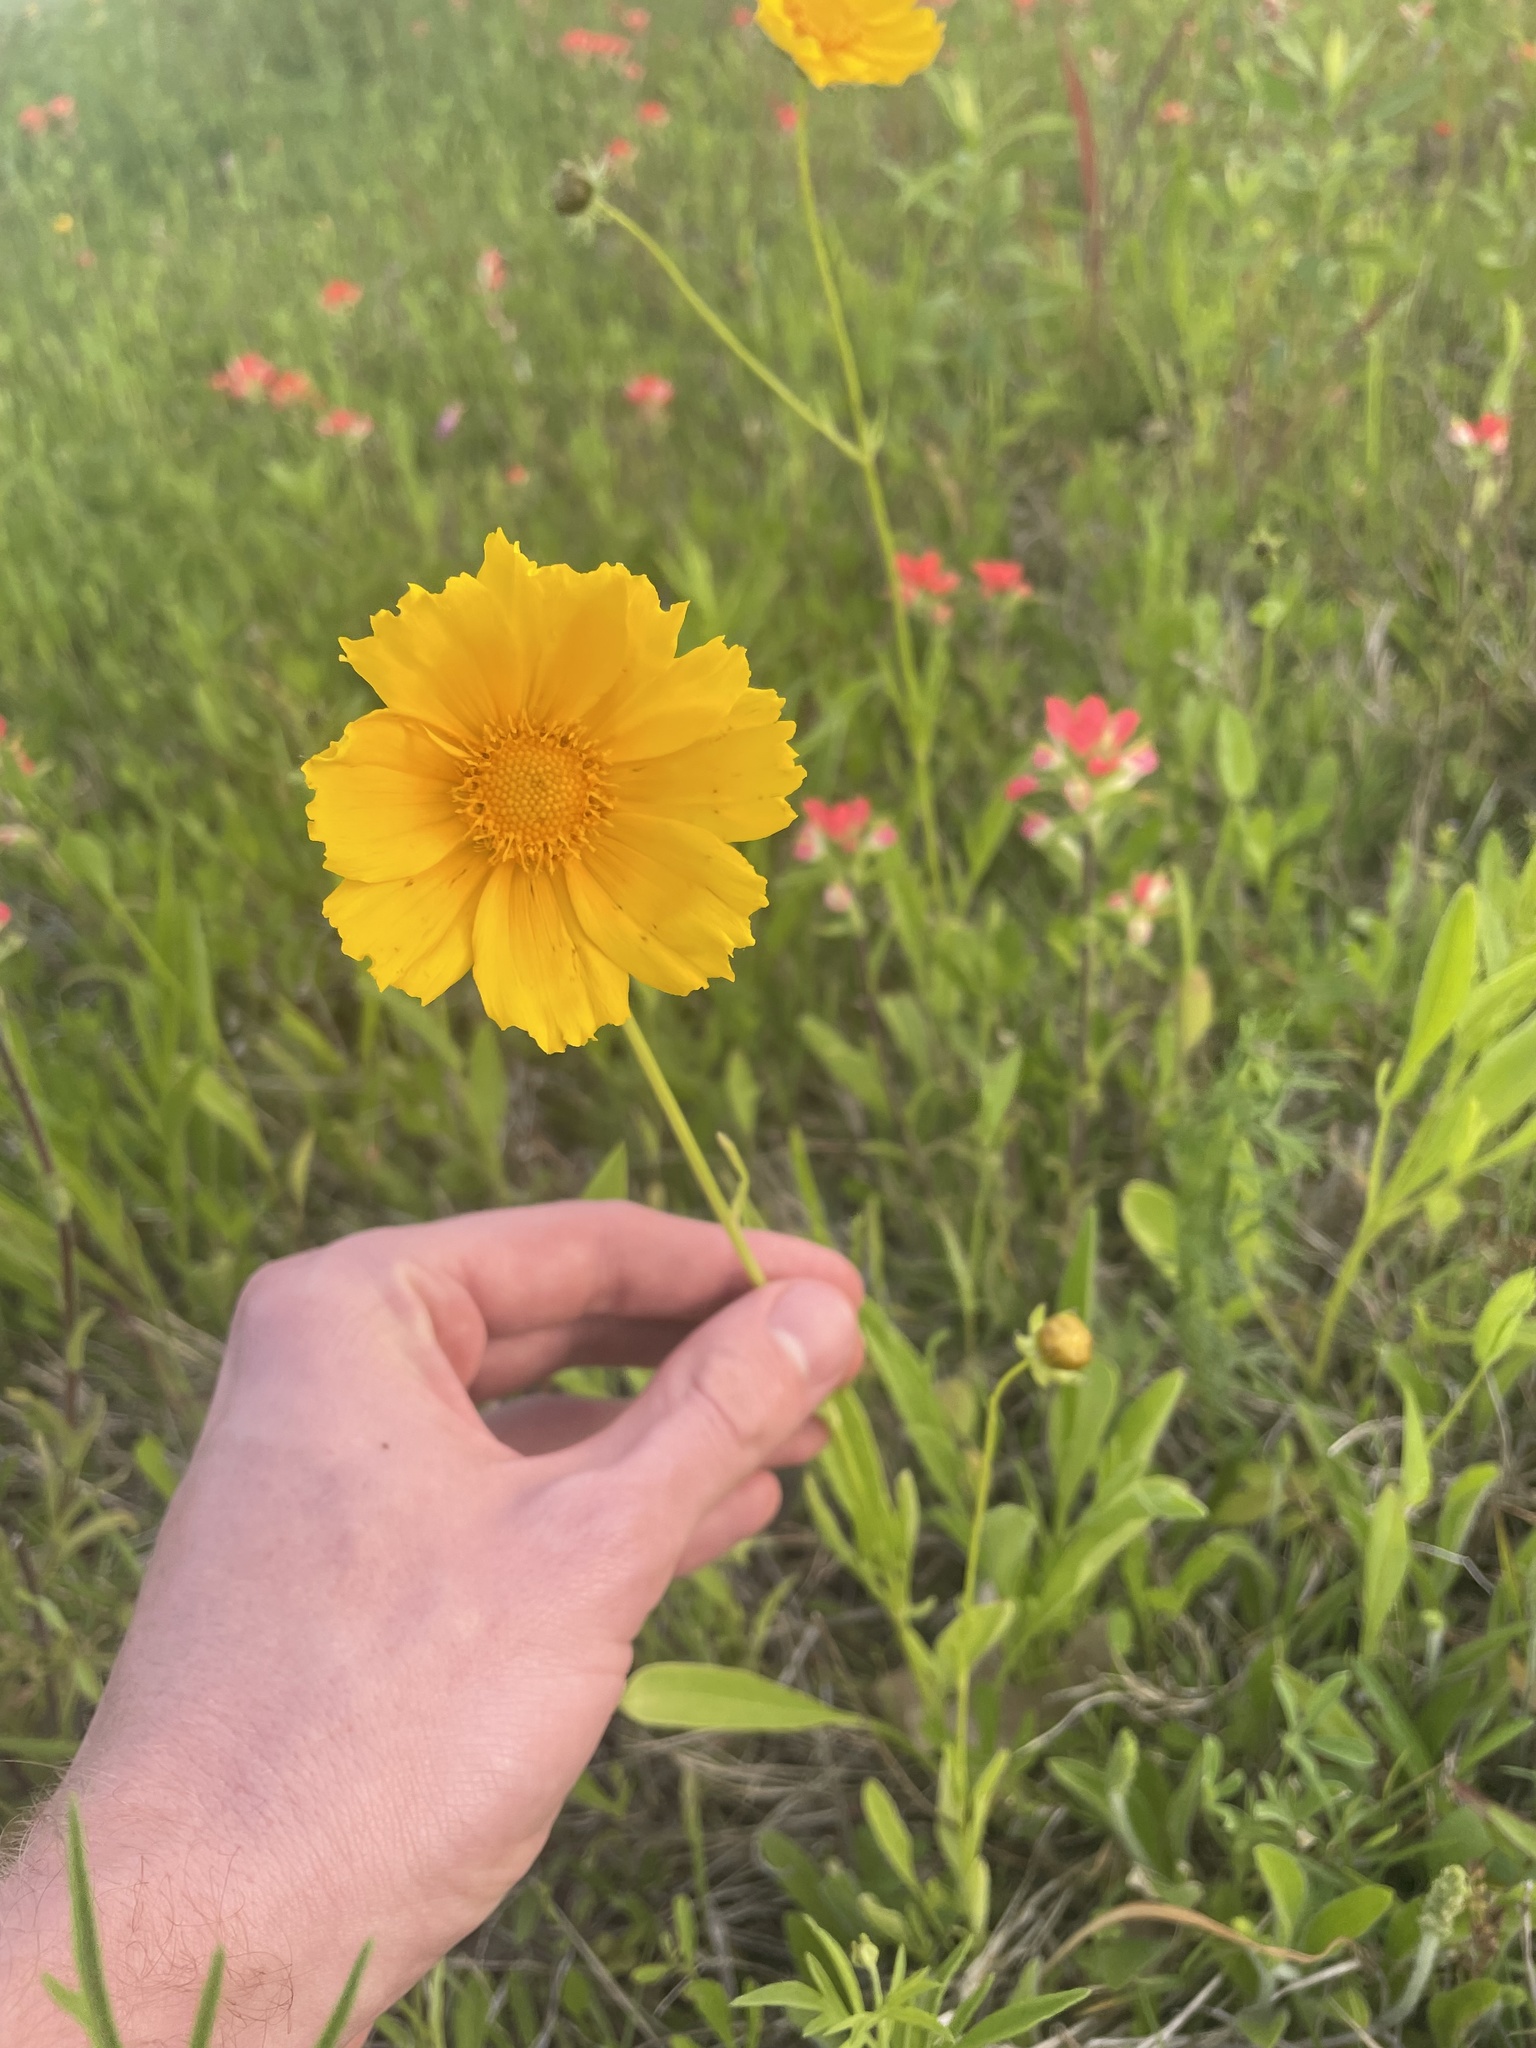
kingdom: Plantae
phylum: Tracheophyta
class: Magnoliopsida
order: Asterales
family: Asteraceae
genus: Coreopsis
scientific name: Coreopsis lanceolata
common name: Garden coreopsis
